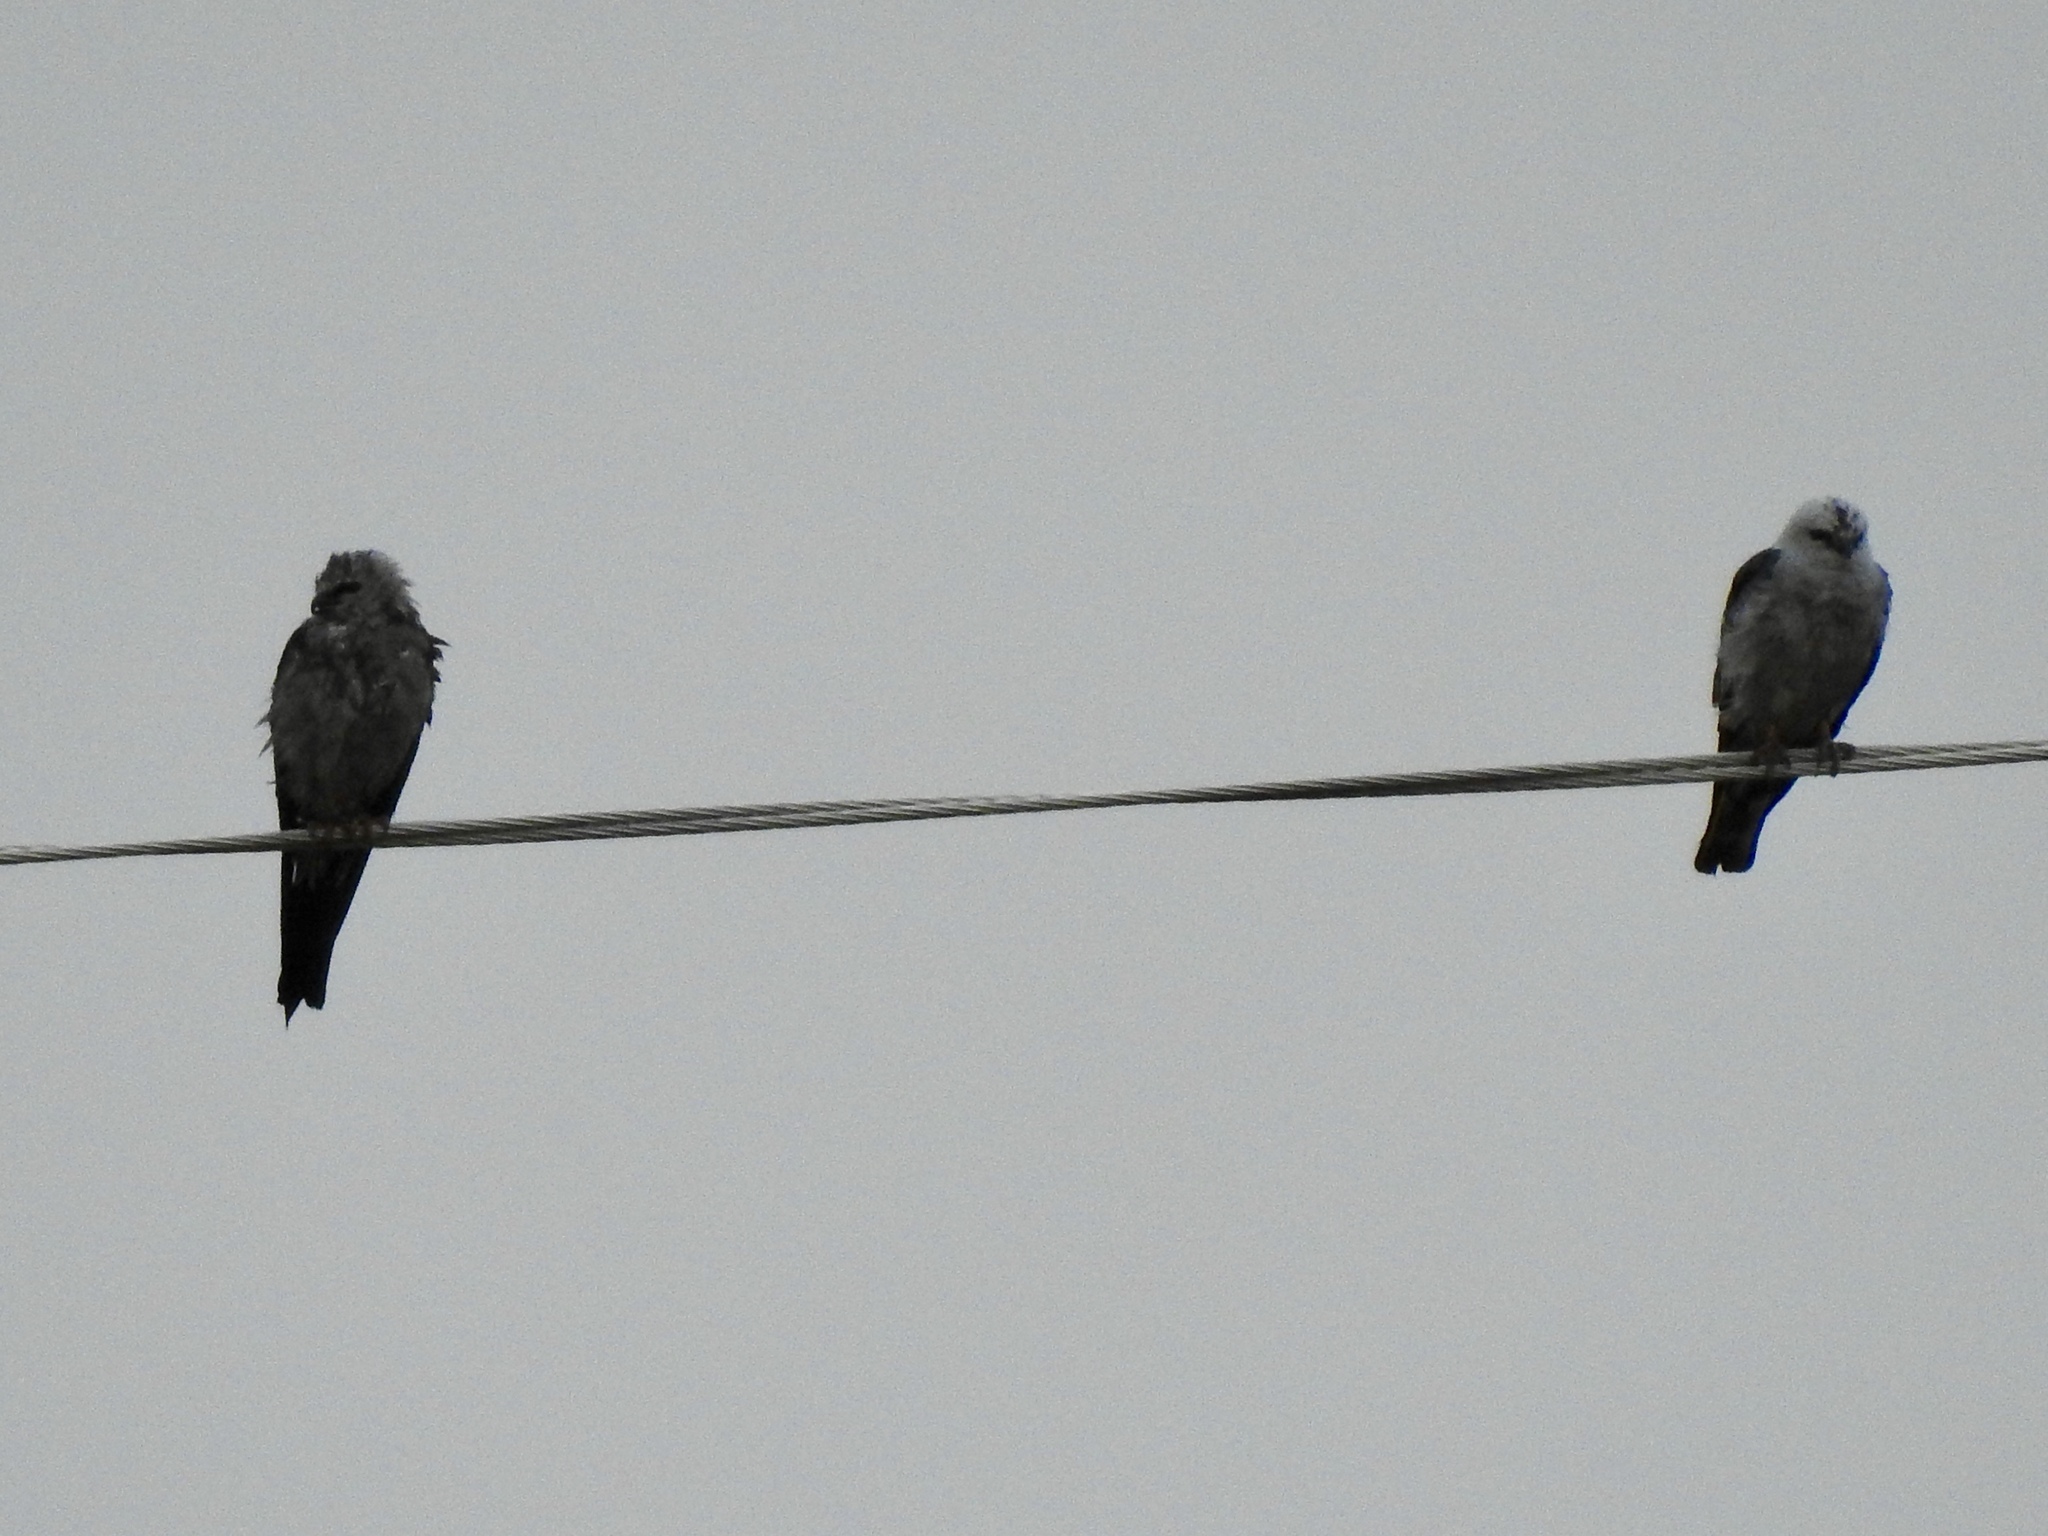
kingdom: Animalia
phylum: Chordata
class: Aves
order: Accipitriformes
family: Accipitridae
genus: Ictinia
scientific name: Ictinia mississippiensis
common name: Mississippi kite
